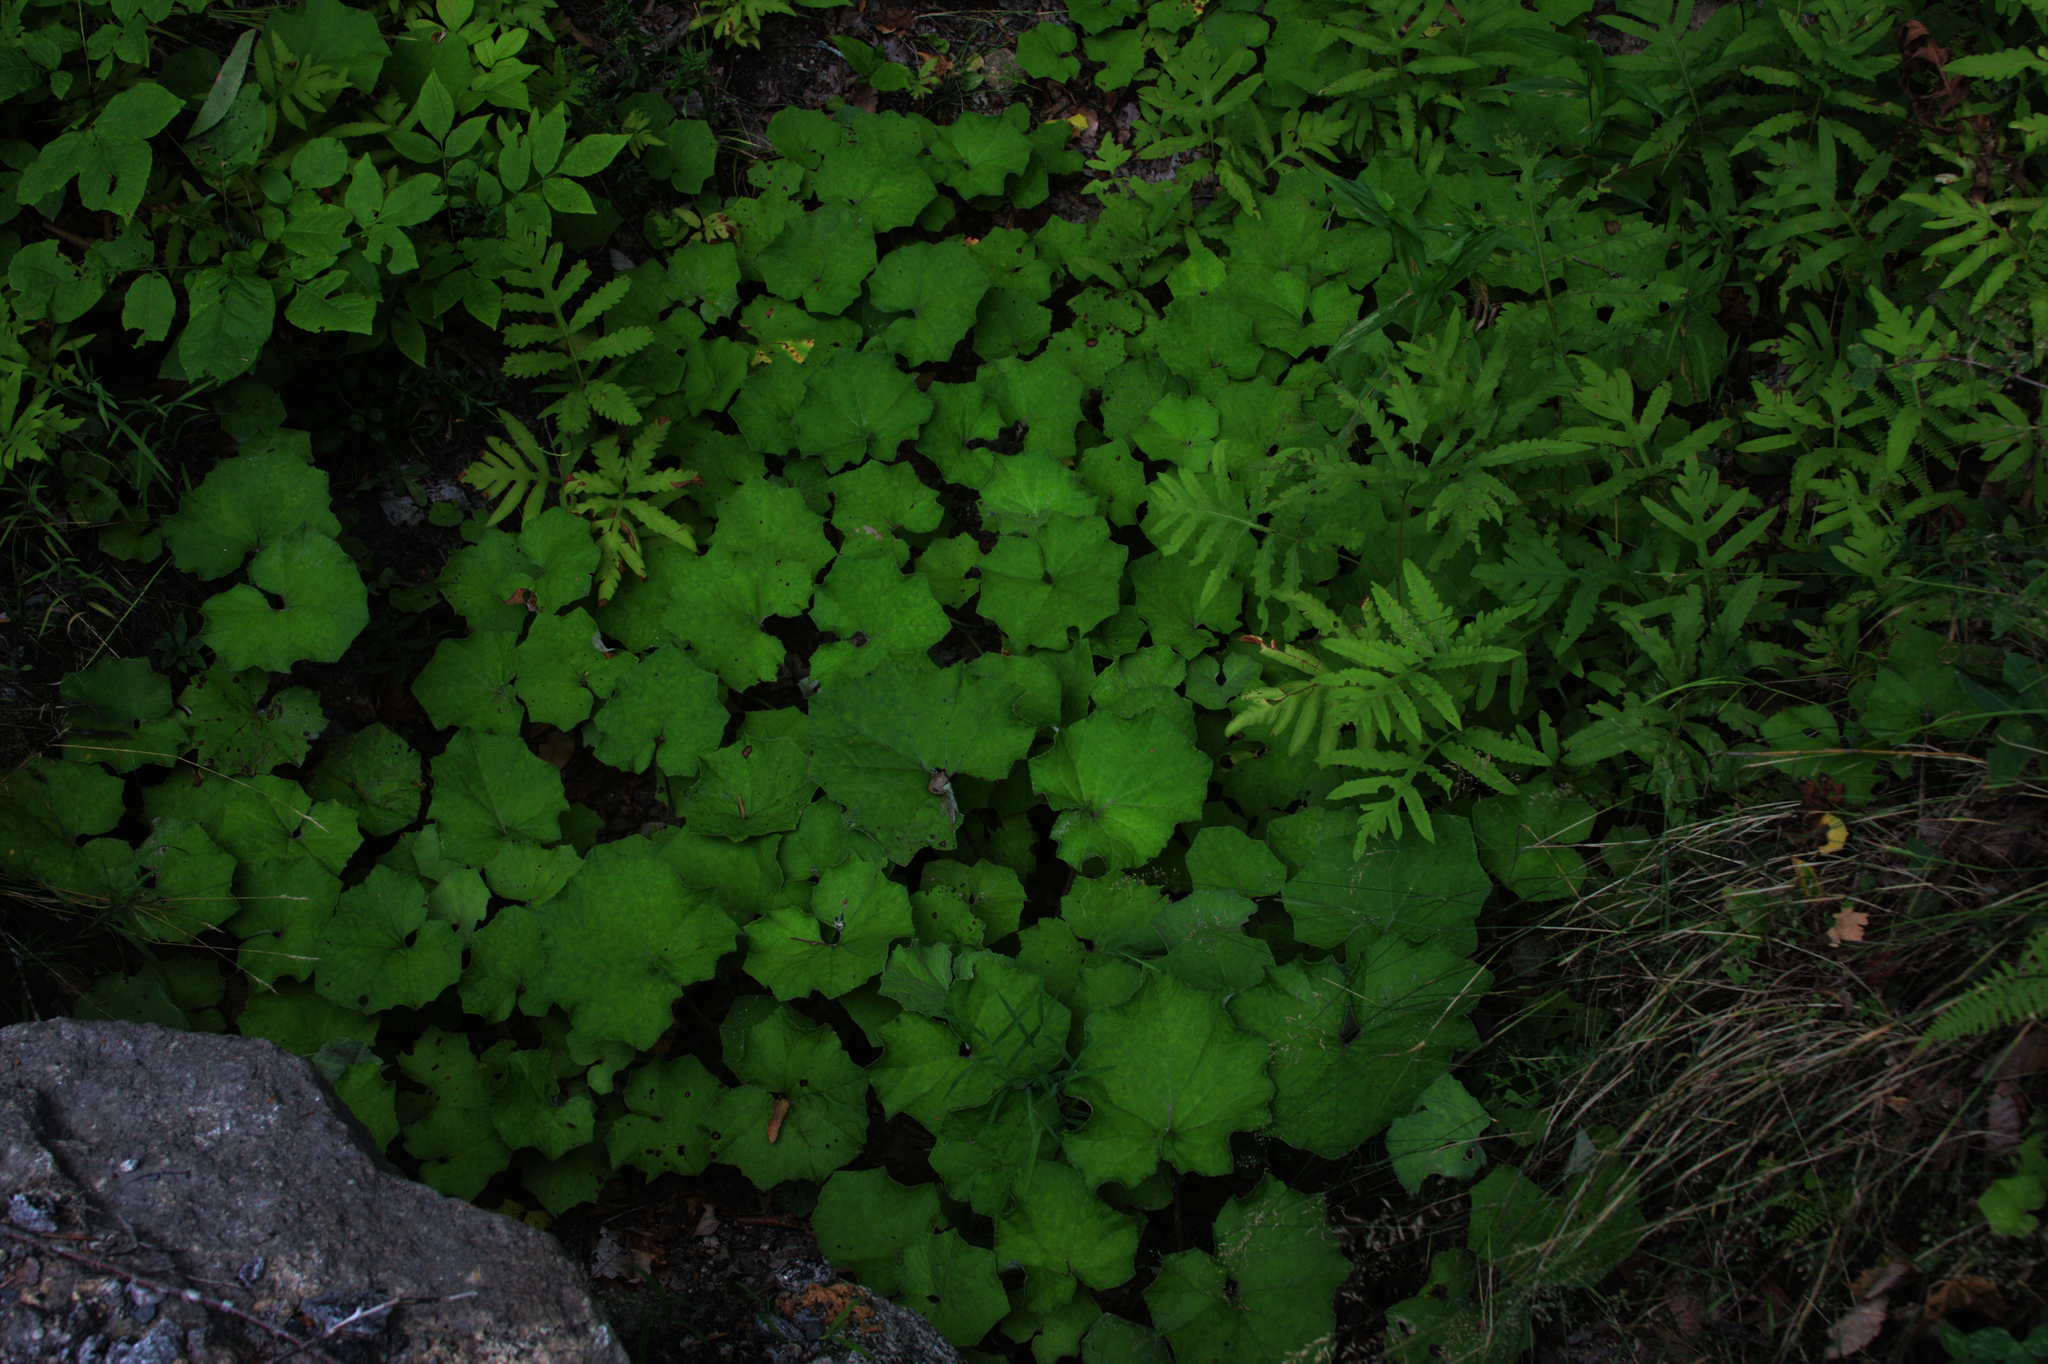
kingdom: Plantae
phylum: Tracheophyta
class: Polypodiopsida
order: Polypodiales
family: Onocleaceae
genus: Onoclea
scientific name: Onoclea sensibilis
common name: Sensitive fern
